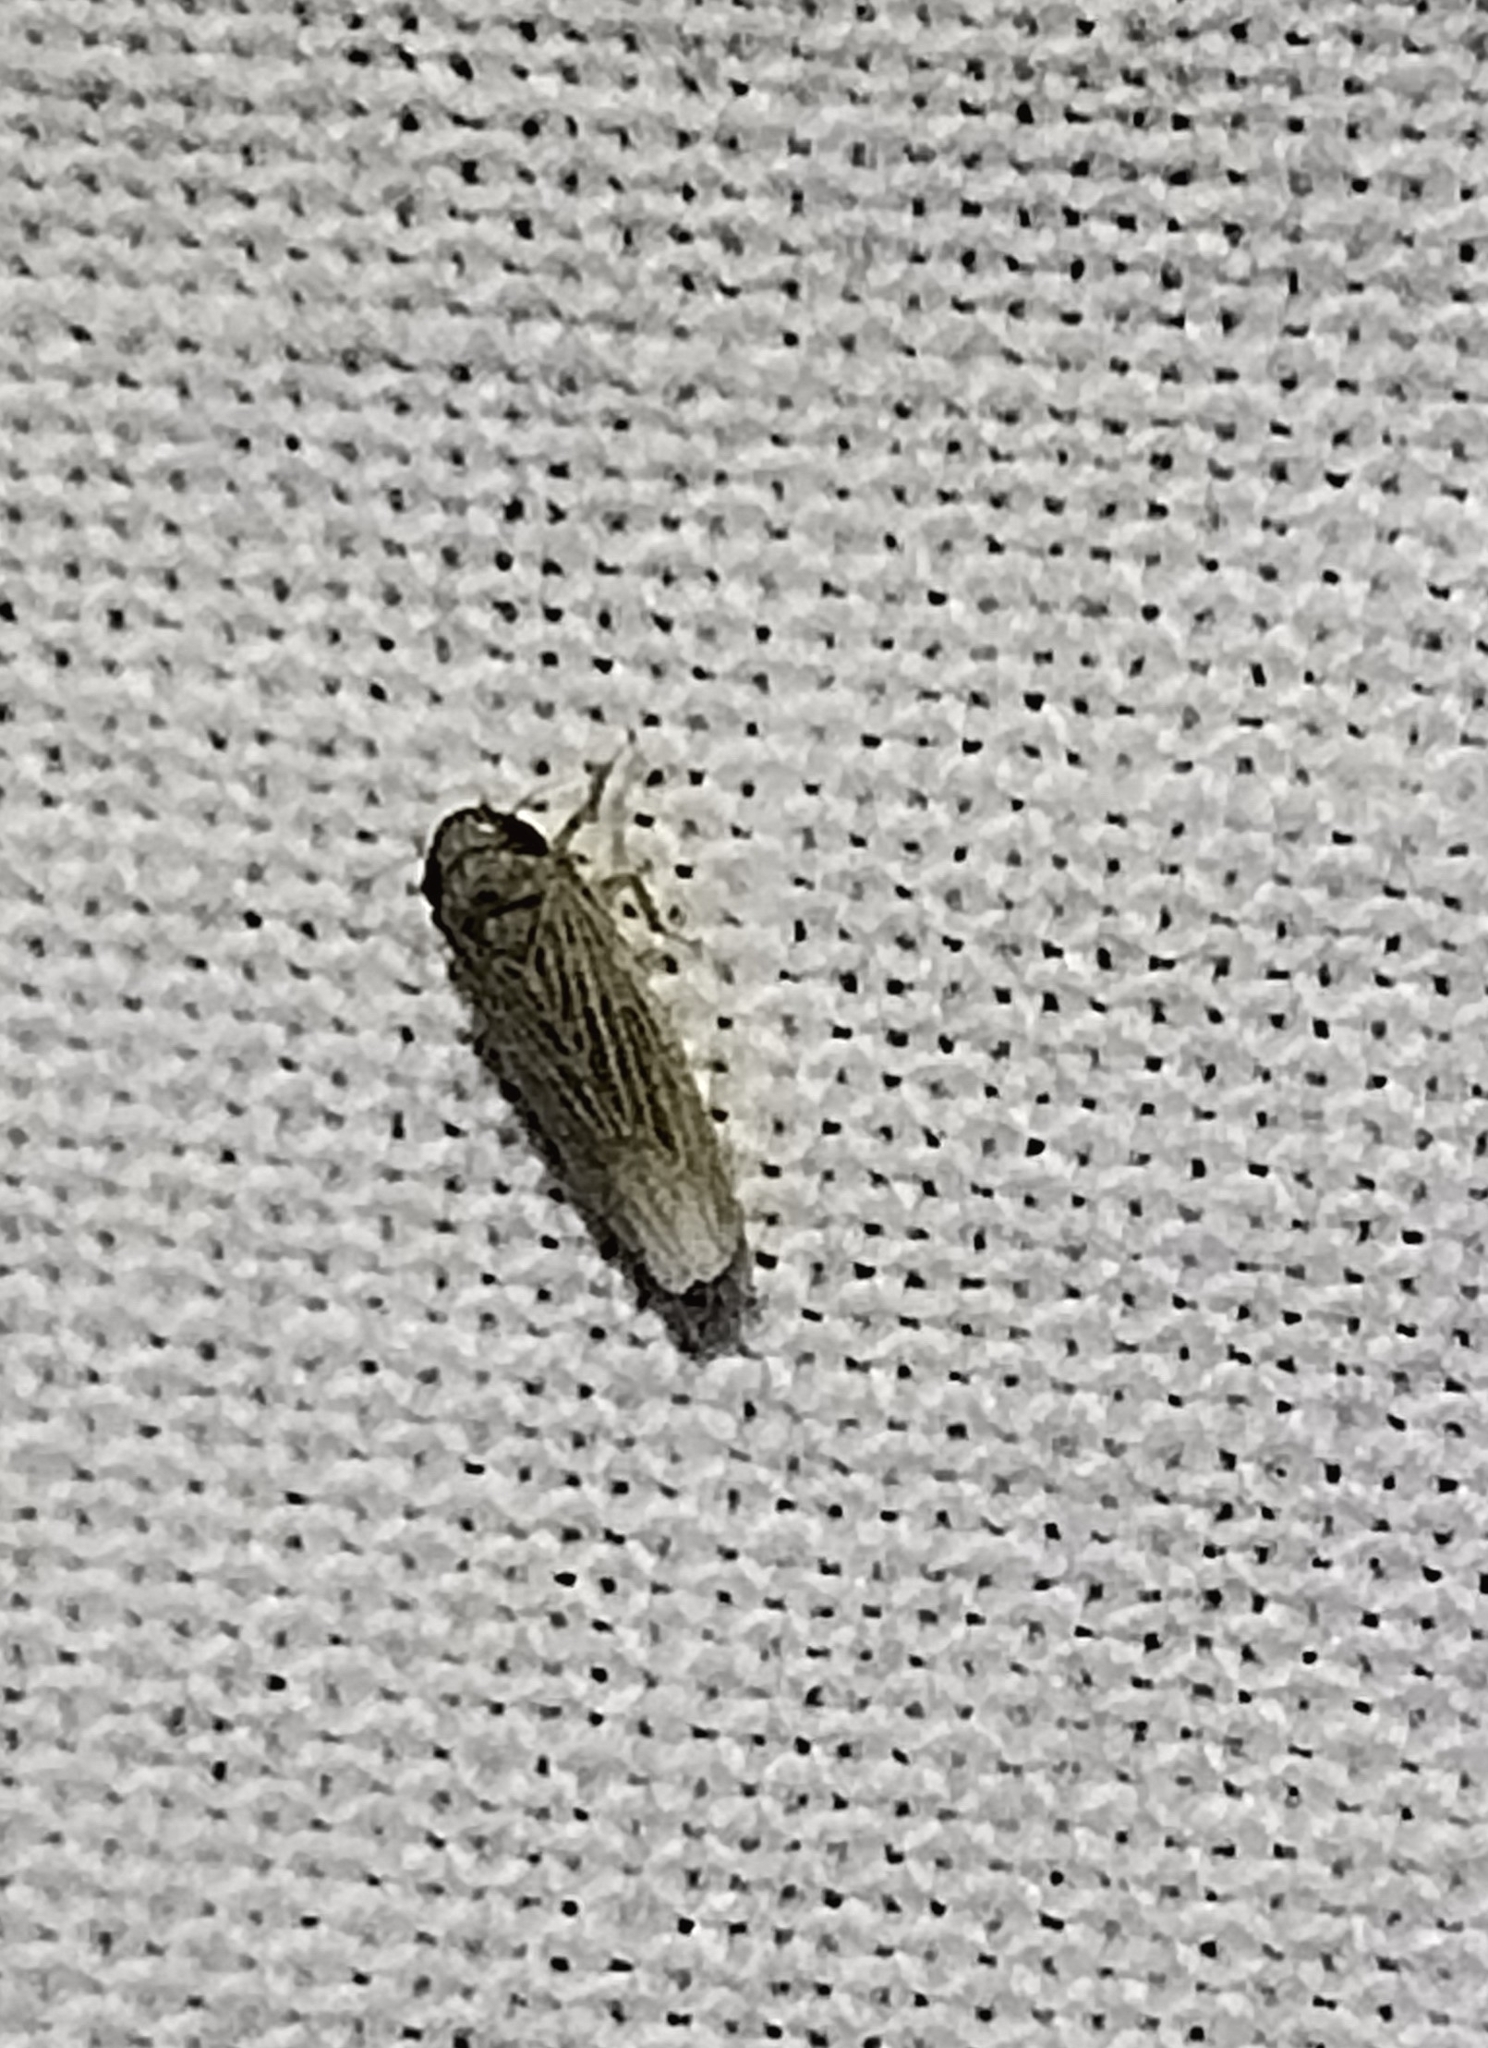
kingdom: Animalia
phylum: Arthropoda
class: Insecta
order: Hemiptera
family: Cicadellidae
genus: Graminella
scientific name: Graminella nigrifrons
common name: Blackfaced leafhopper
